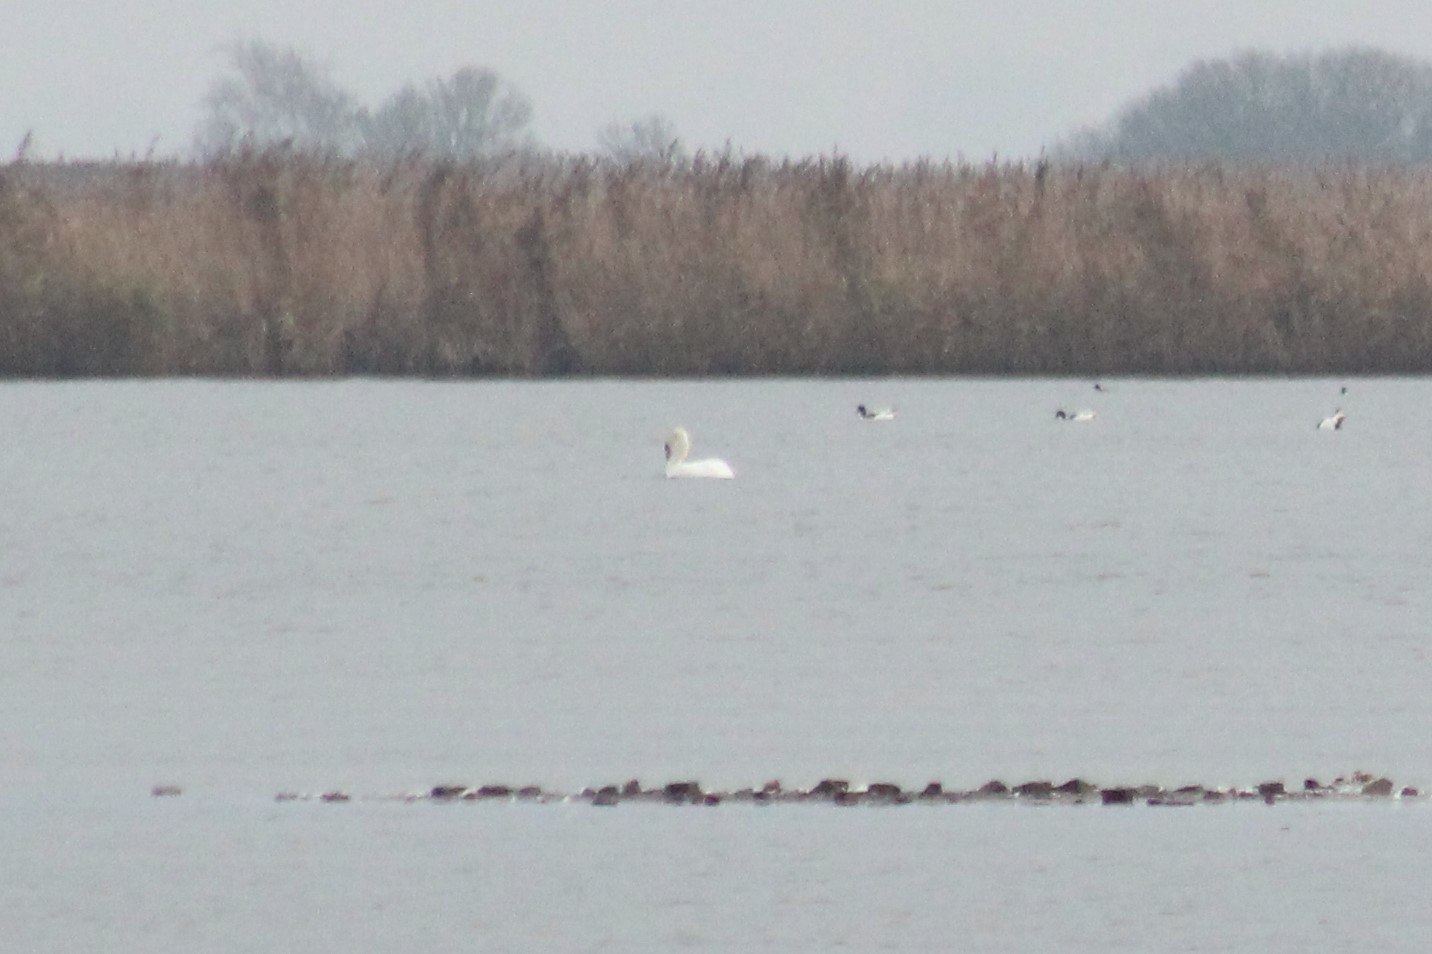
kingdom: Animalia
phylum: Chordata
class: Aves
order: Anseriformes
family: Anatidae
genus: Cygnus
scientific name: Cygnus olor
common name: Mute swan
